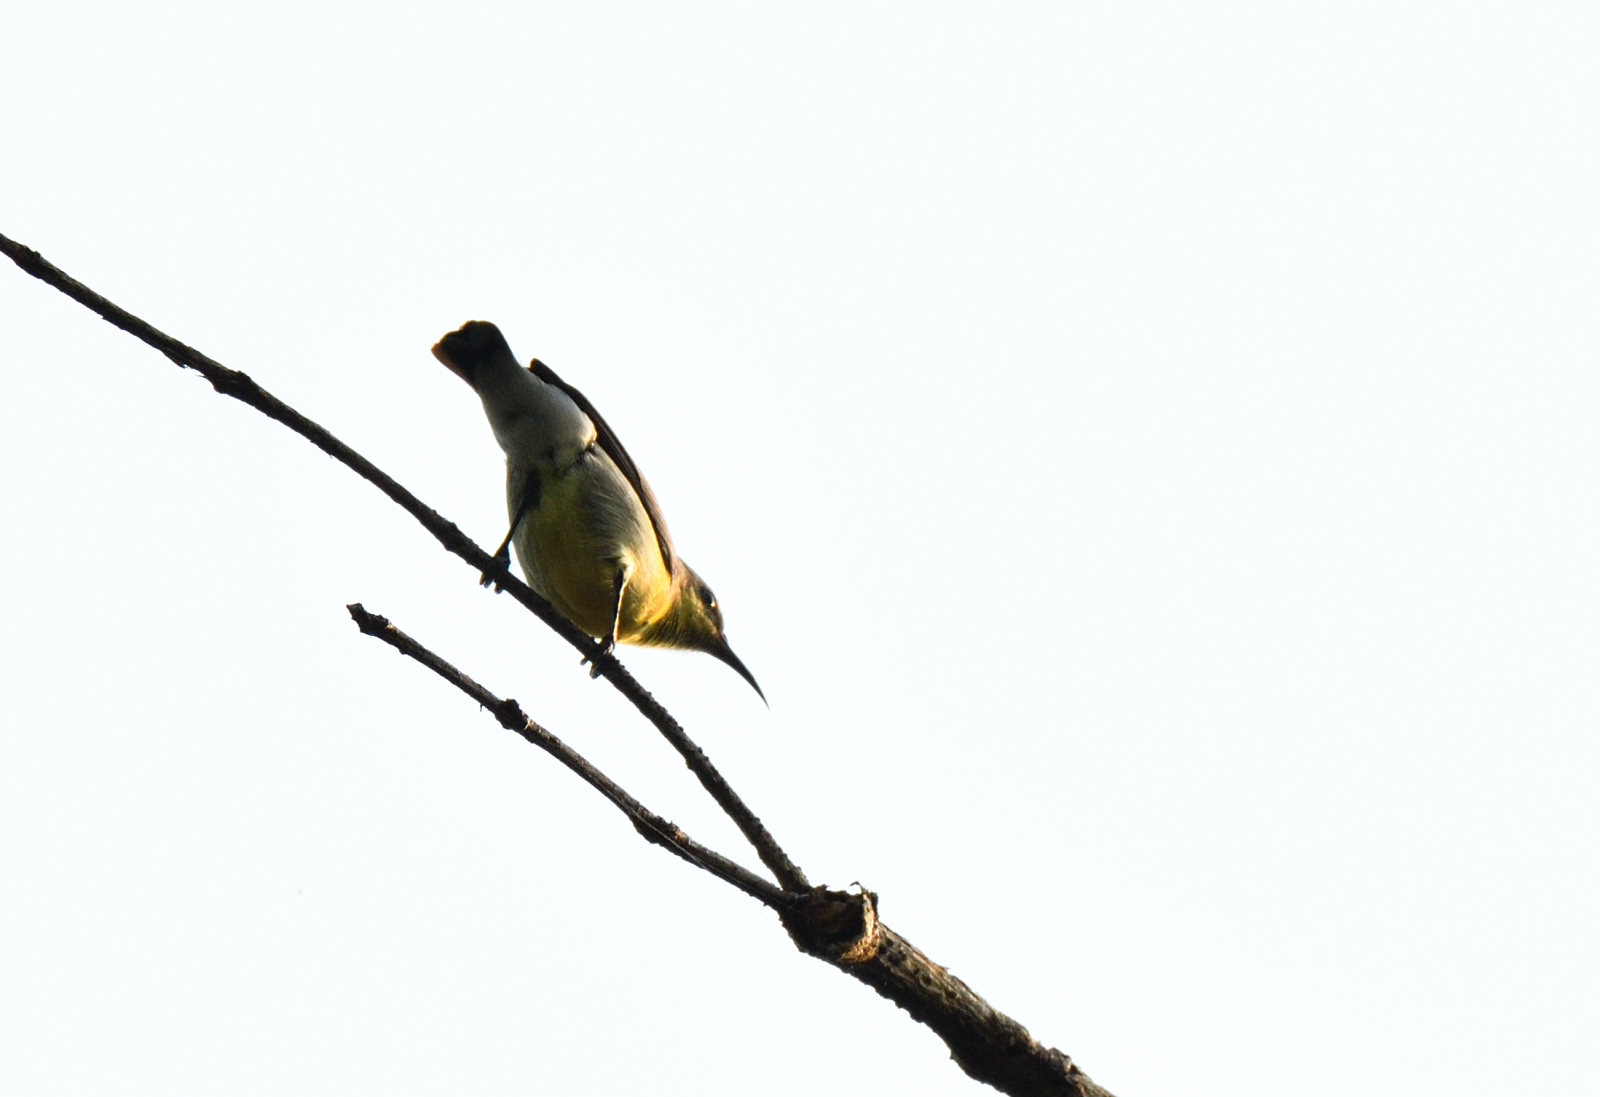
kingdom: Animalia
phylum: Chordata
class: Aves
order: Passeriformes
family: Nectariniidae
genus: Leptocoma
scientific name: Leptocoma zeylonica
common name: Purple-rumped sunbird
